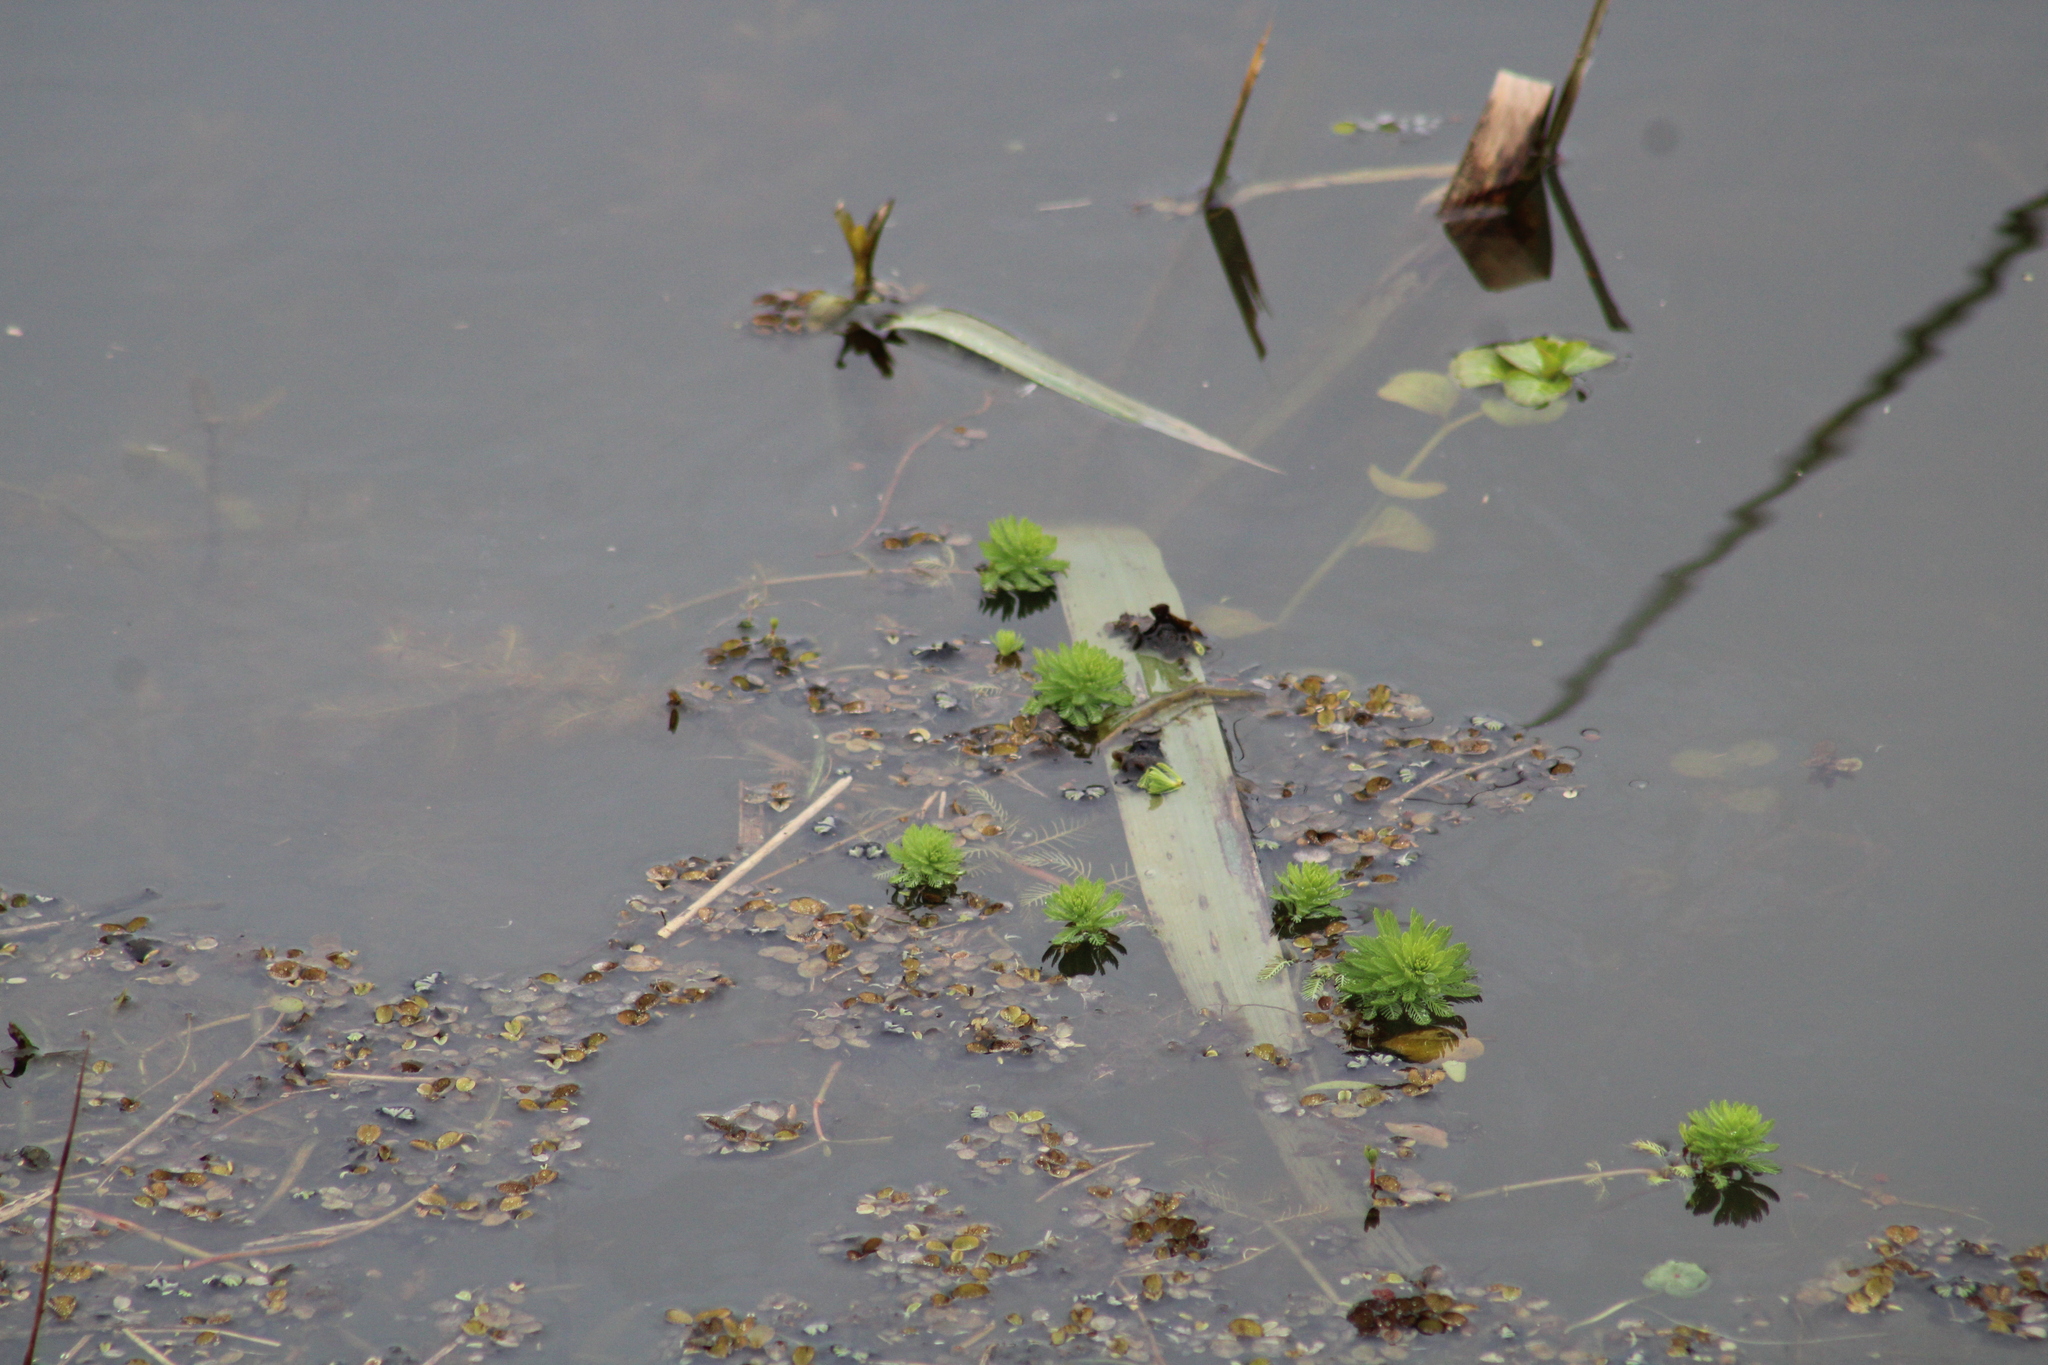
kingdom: Plantae
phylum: Tracheophyta
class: Magnoliopsida
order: Saxifragales
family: Haloragaceae
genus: Myriophyllum
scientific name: Myriophyllum aquaticum
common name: Parrot's feather
